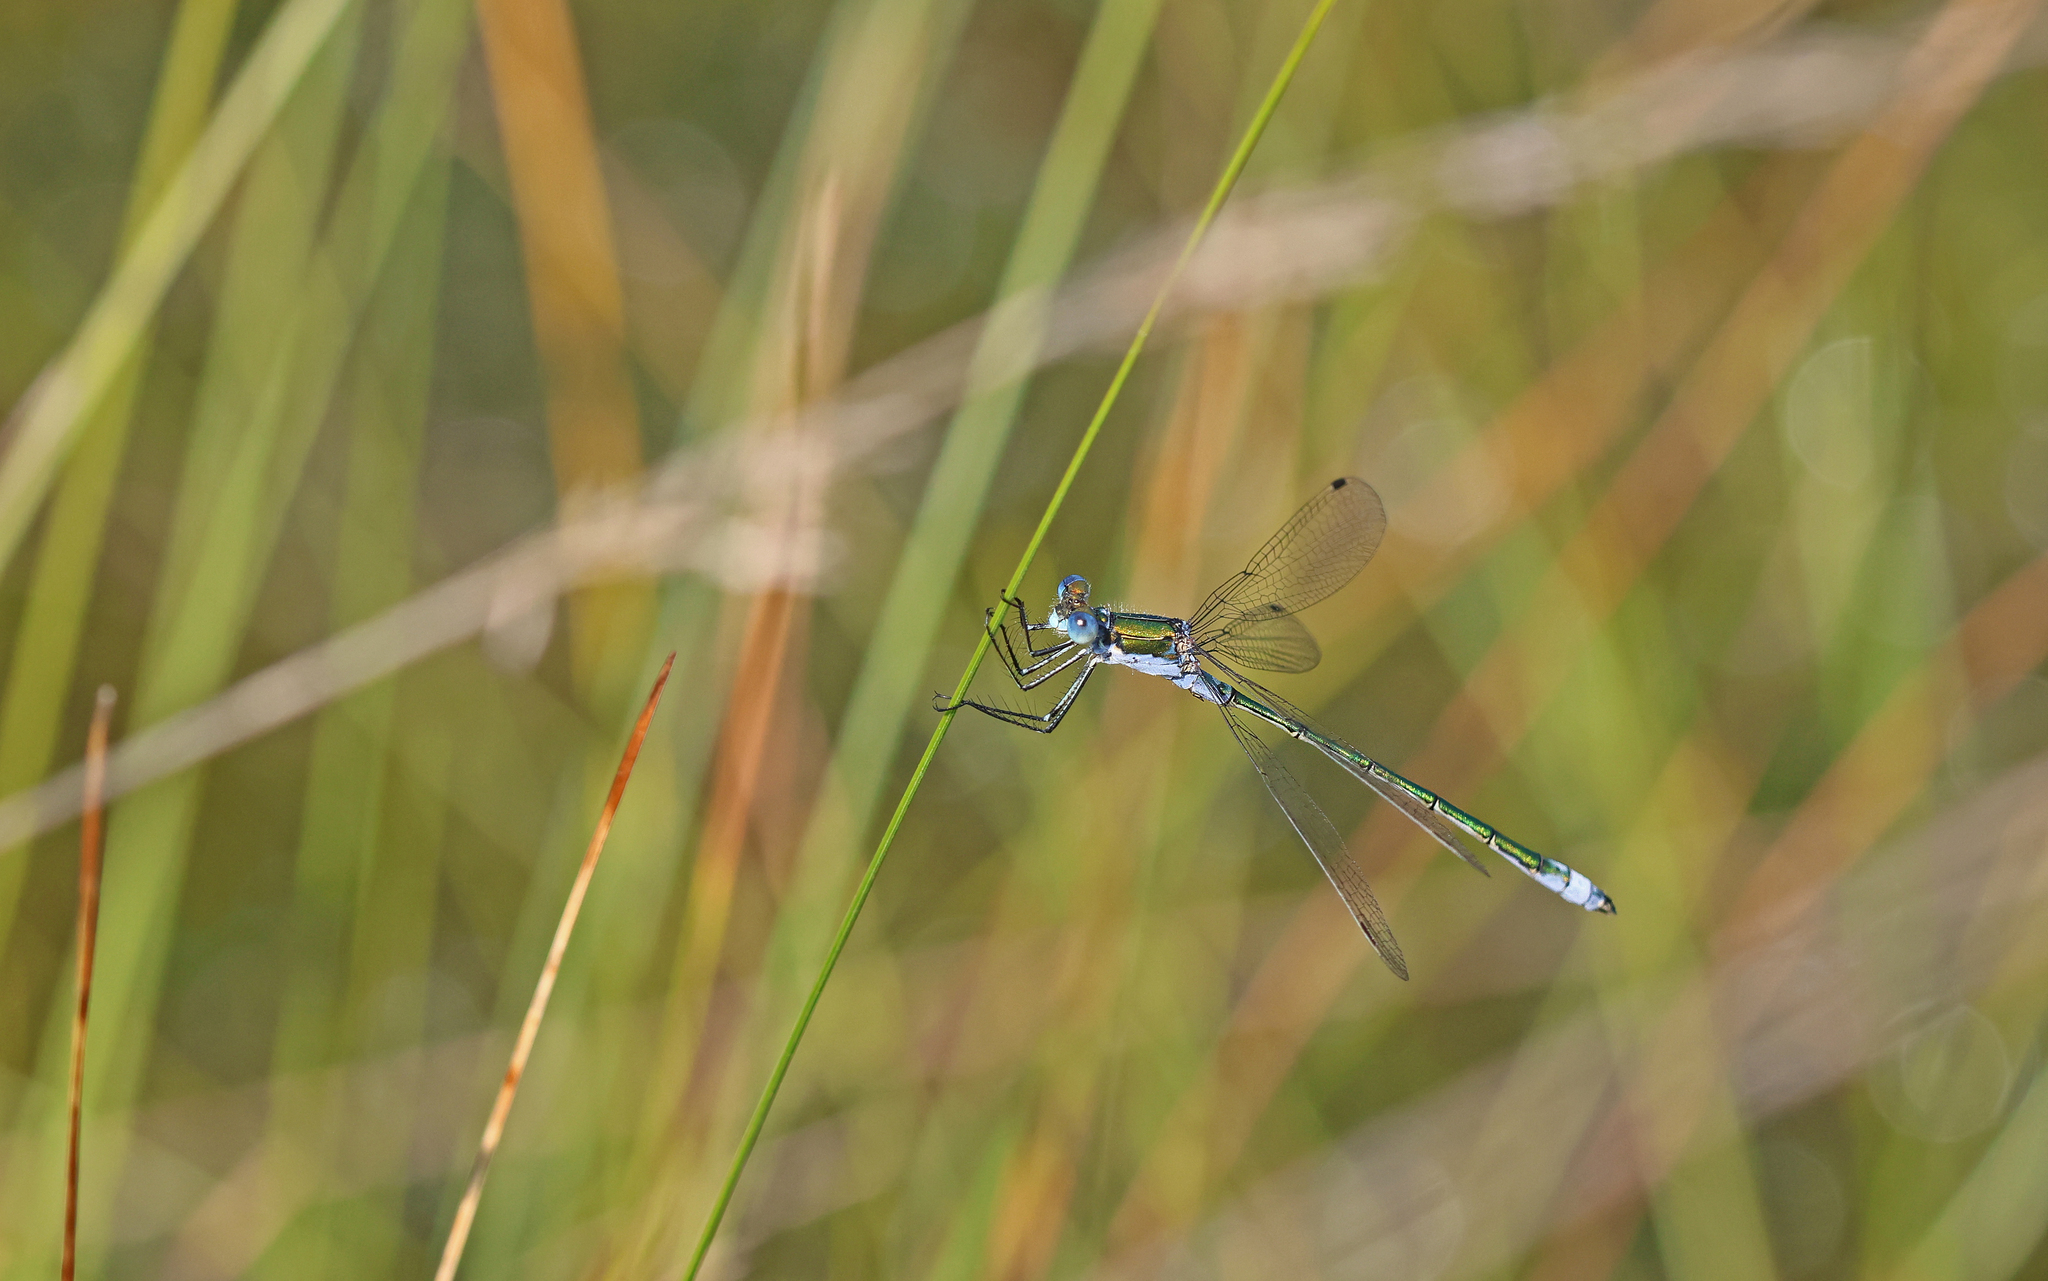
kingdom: Animalia
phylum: Arthropoda
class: Insecta
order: Odonata
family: Lestidae
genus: Lestes
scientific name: Lestes sponsa
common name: Common spreadwing
